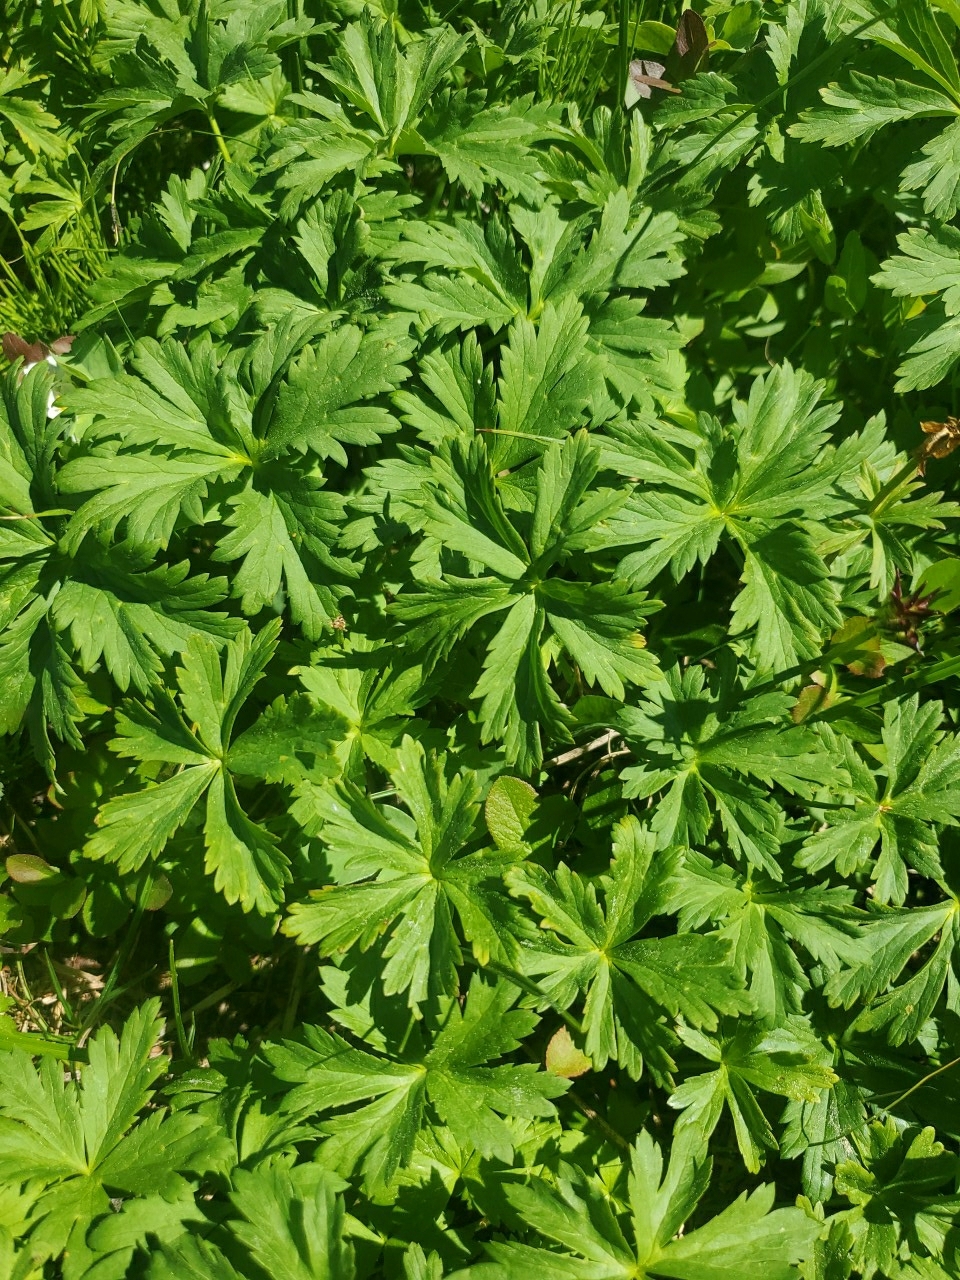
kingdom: Plantae
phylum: Tracheophyta
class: Magnoliopsida
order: Ranunculales
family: Ranunculaceae
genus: Trollius
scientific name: Trollius laxus
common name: American globeflower
